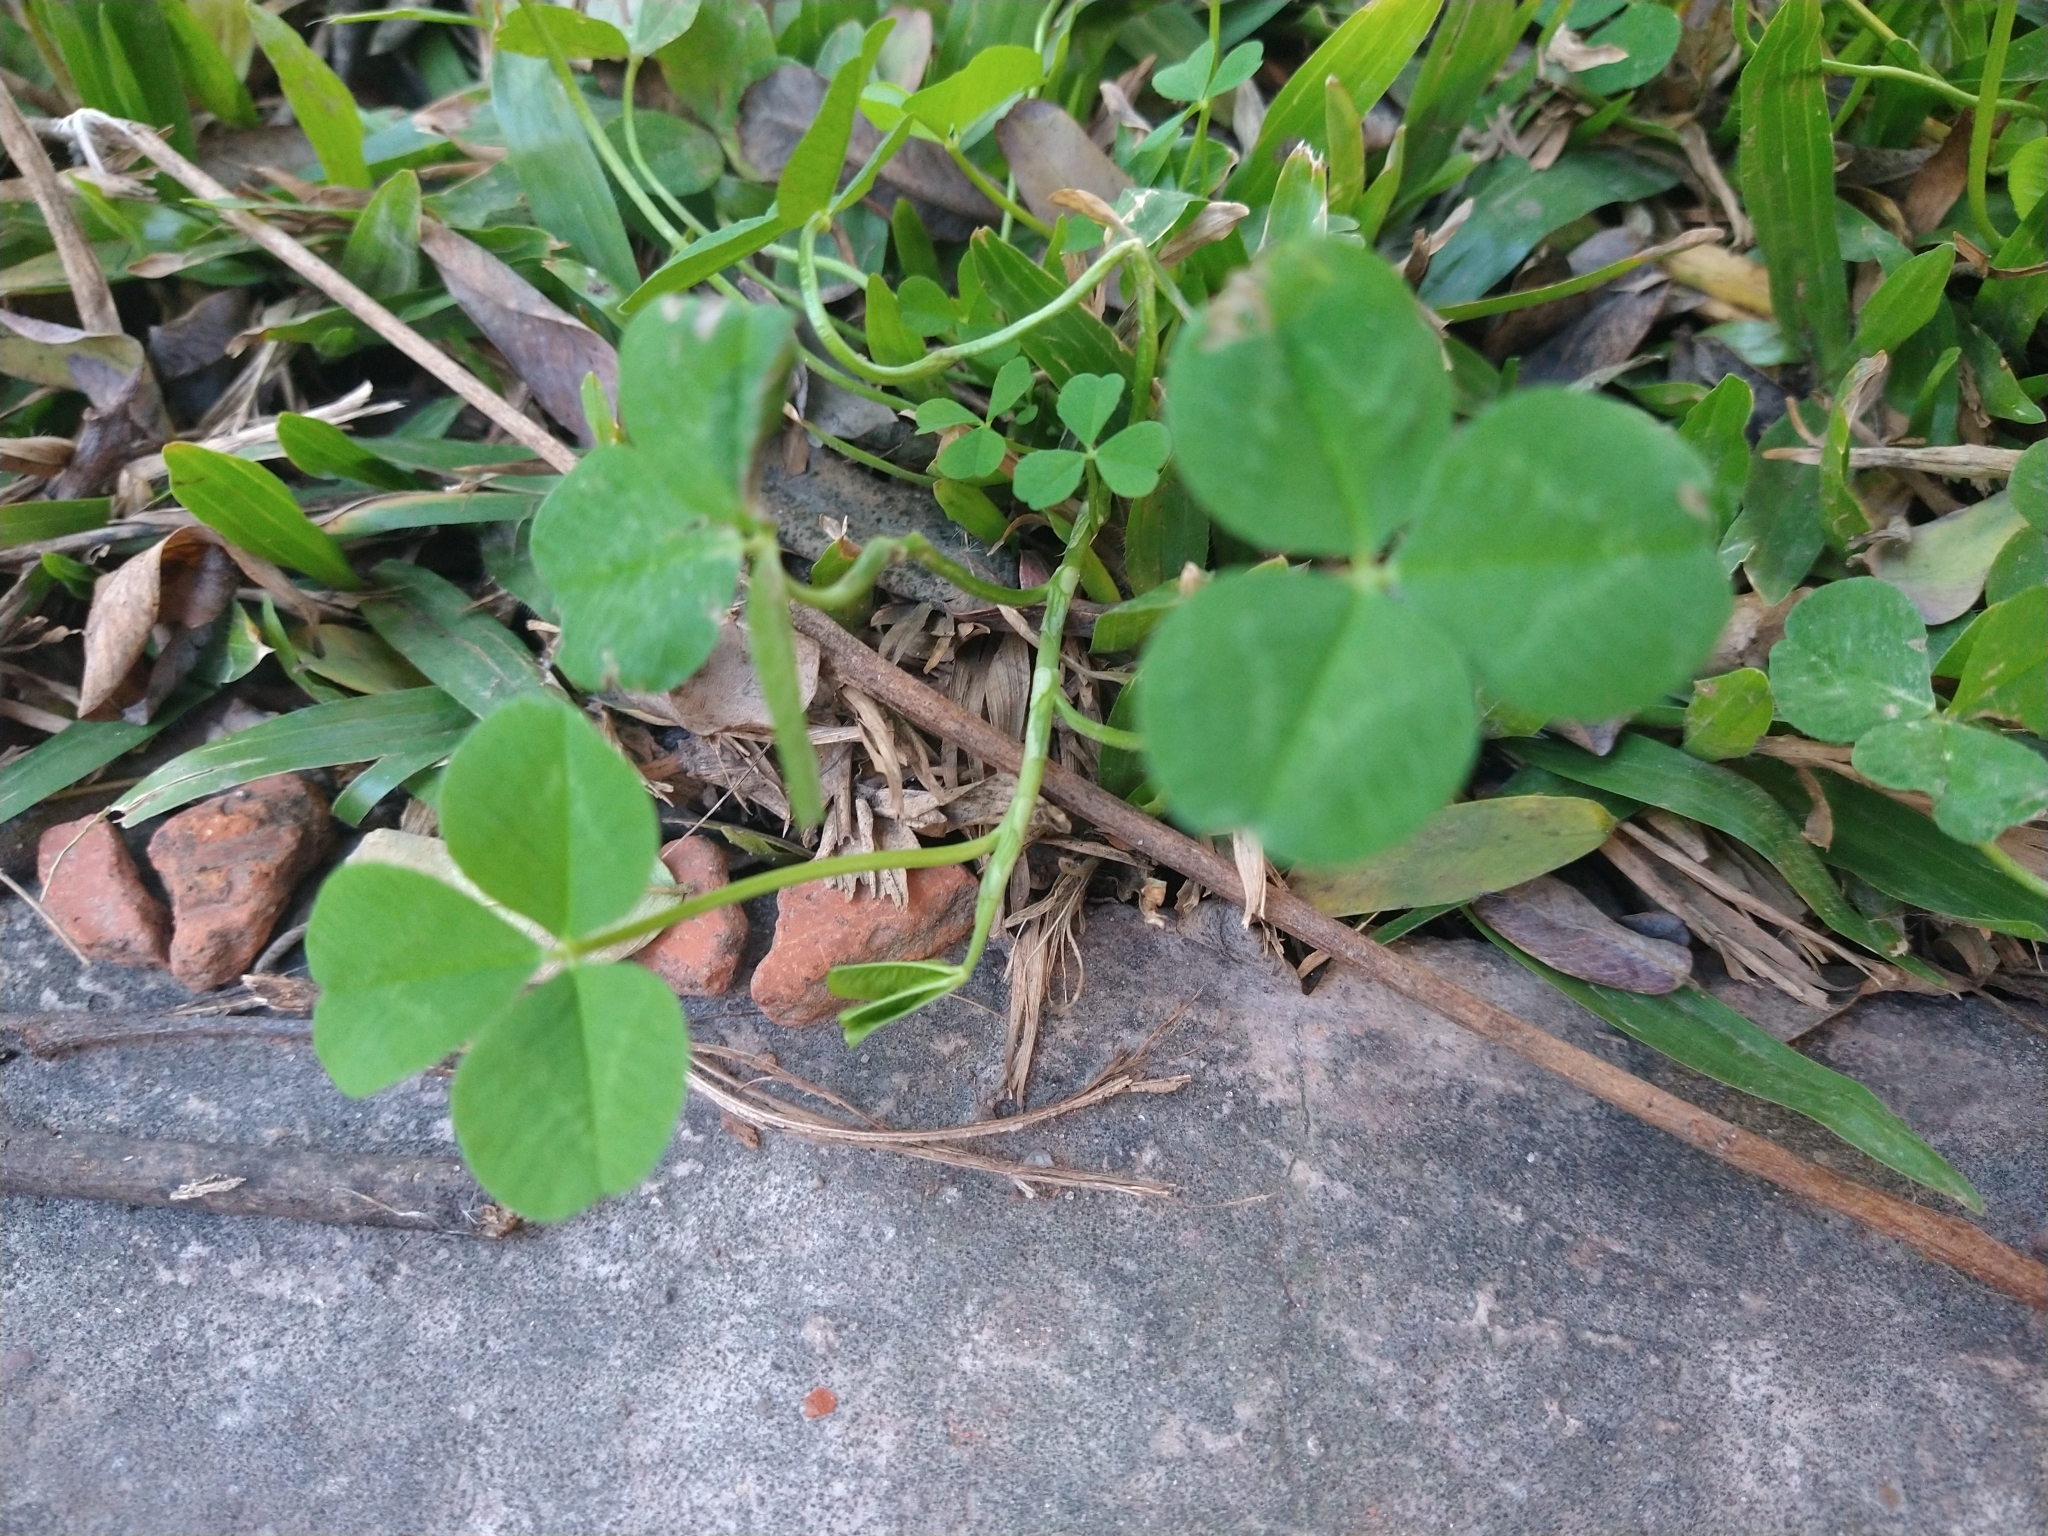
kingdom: Plantae
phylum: Tracheophyta
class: Magnoliopsida
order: Fabales
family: Fabaceae
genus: Trifolium
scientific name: Trifolium repens
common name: White clover
